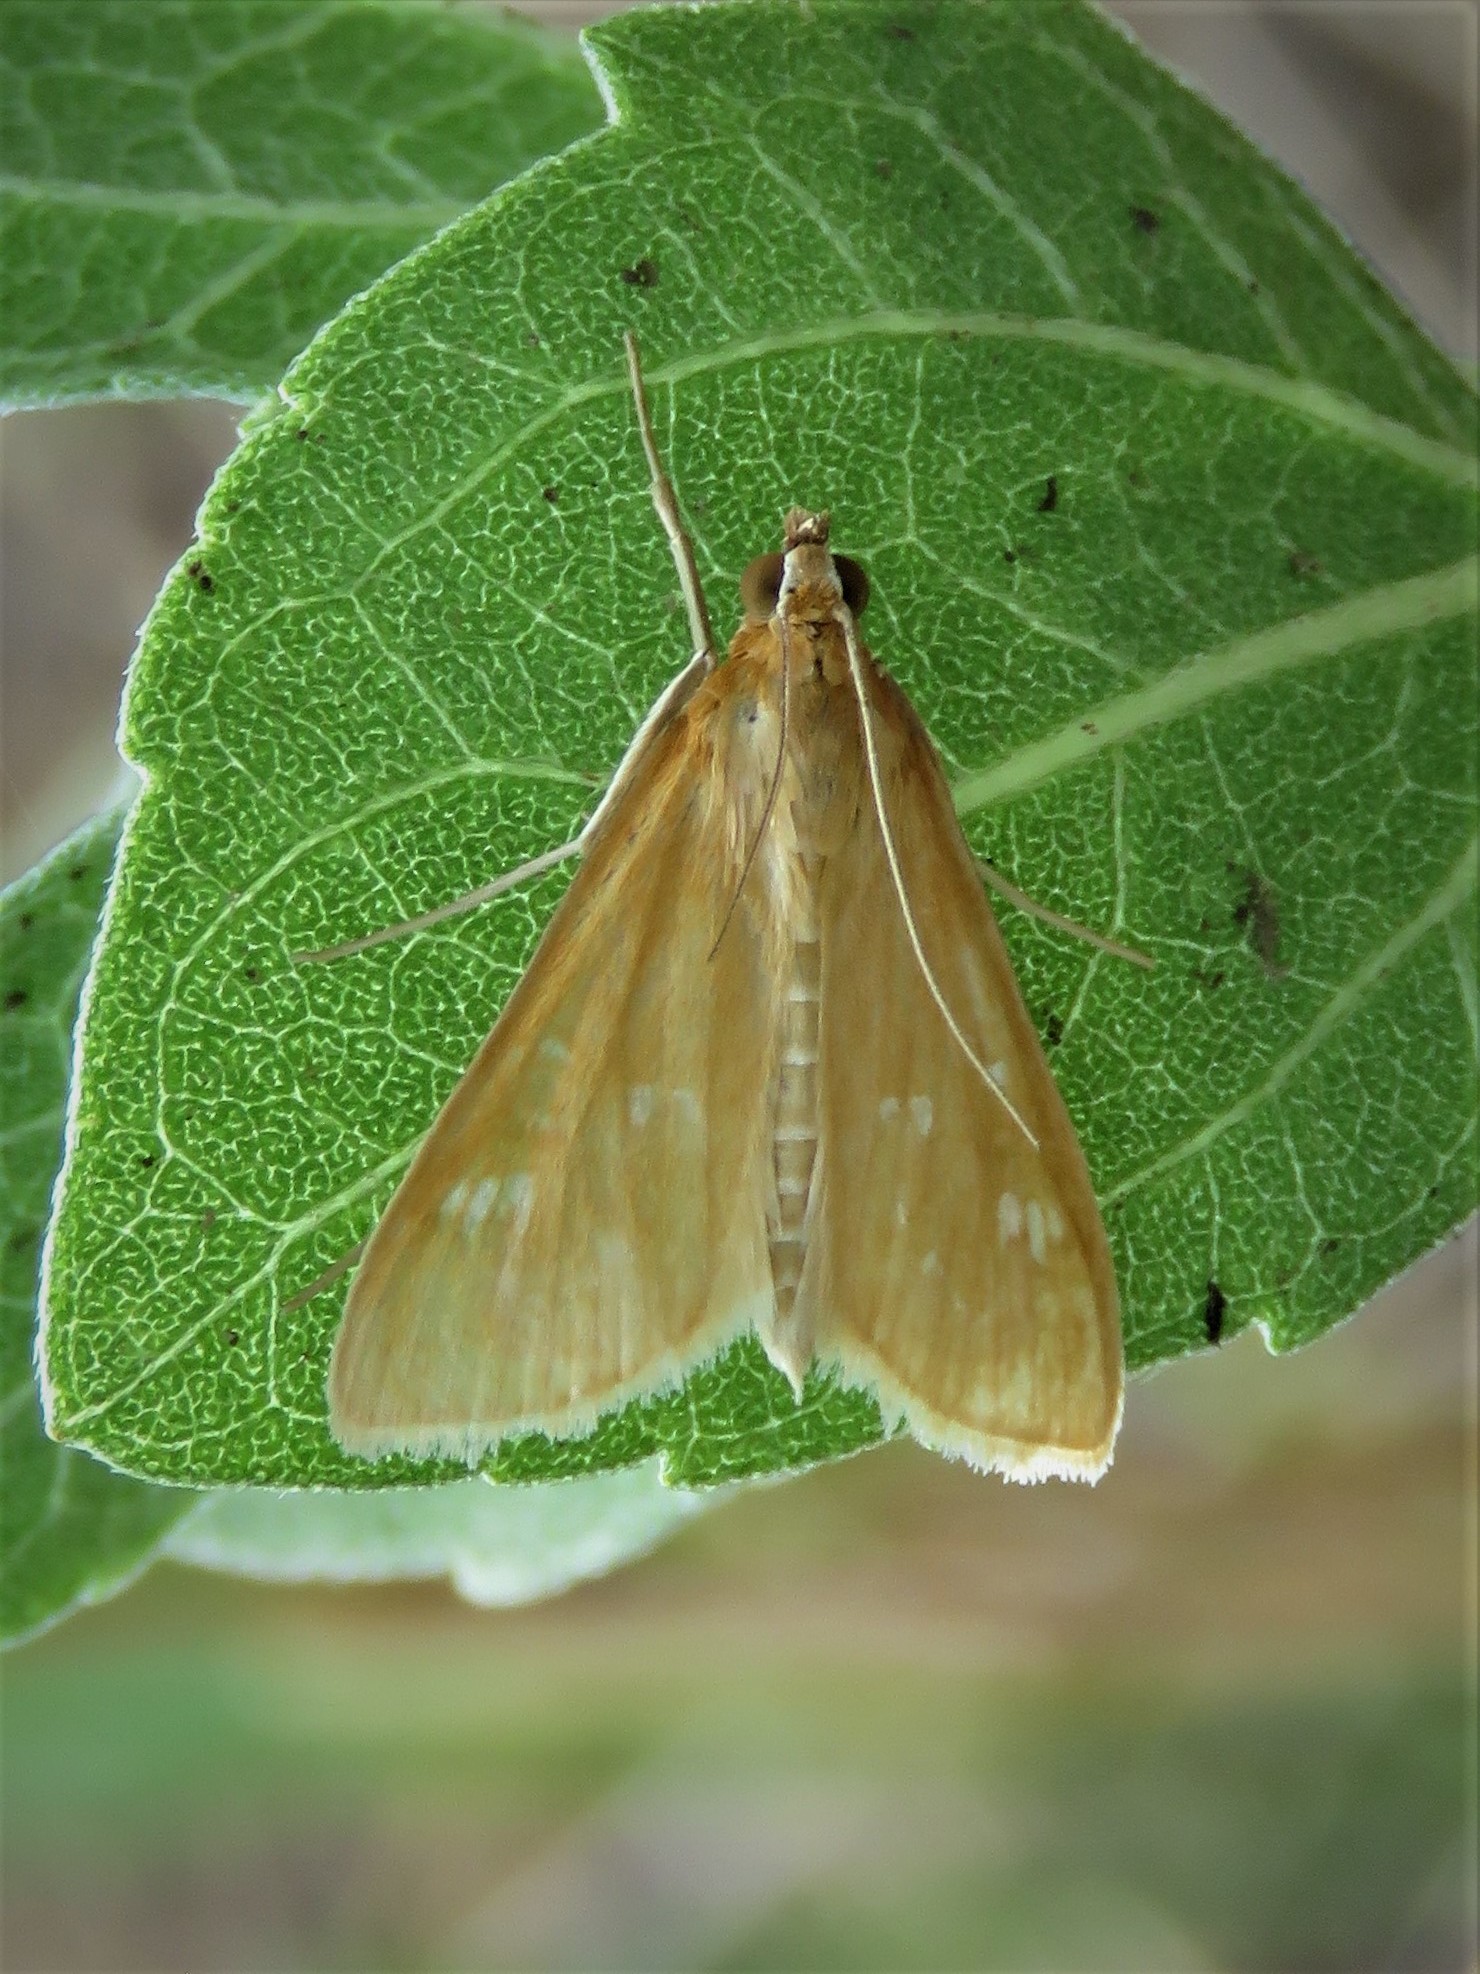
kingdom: Animalia
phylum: Arthropoda
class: Insecta
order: Lepidoptera
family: Crambidae
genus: Diastictis
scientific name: Diastictis ventralis
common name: White-spotted brown
